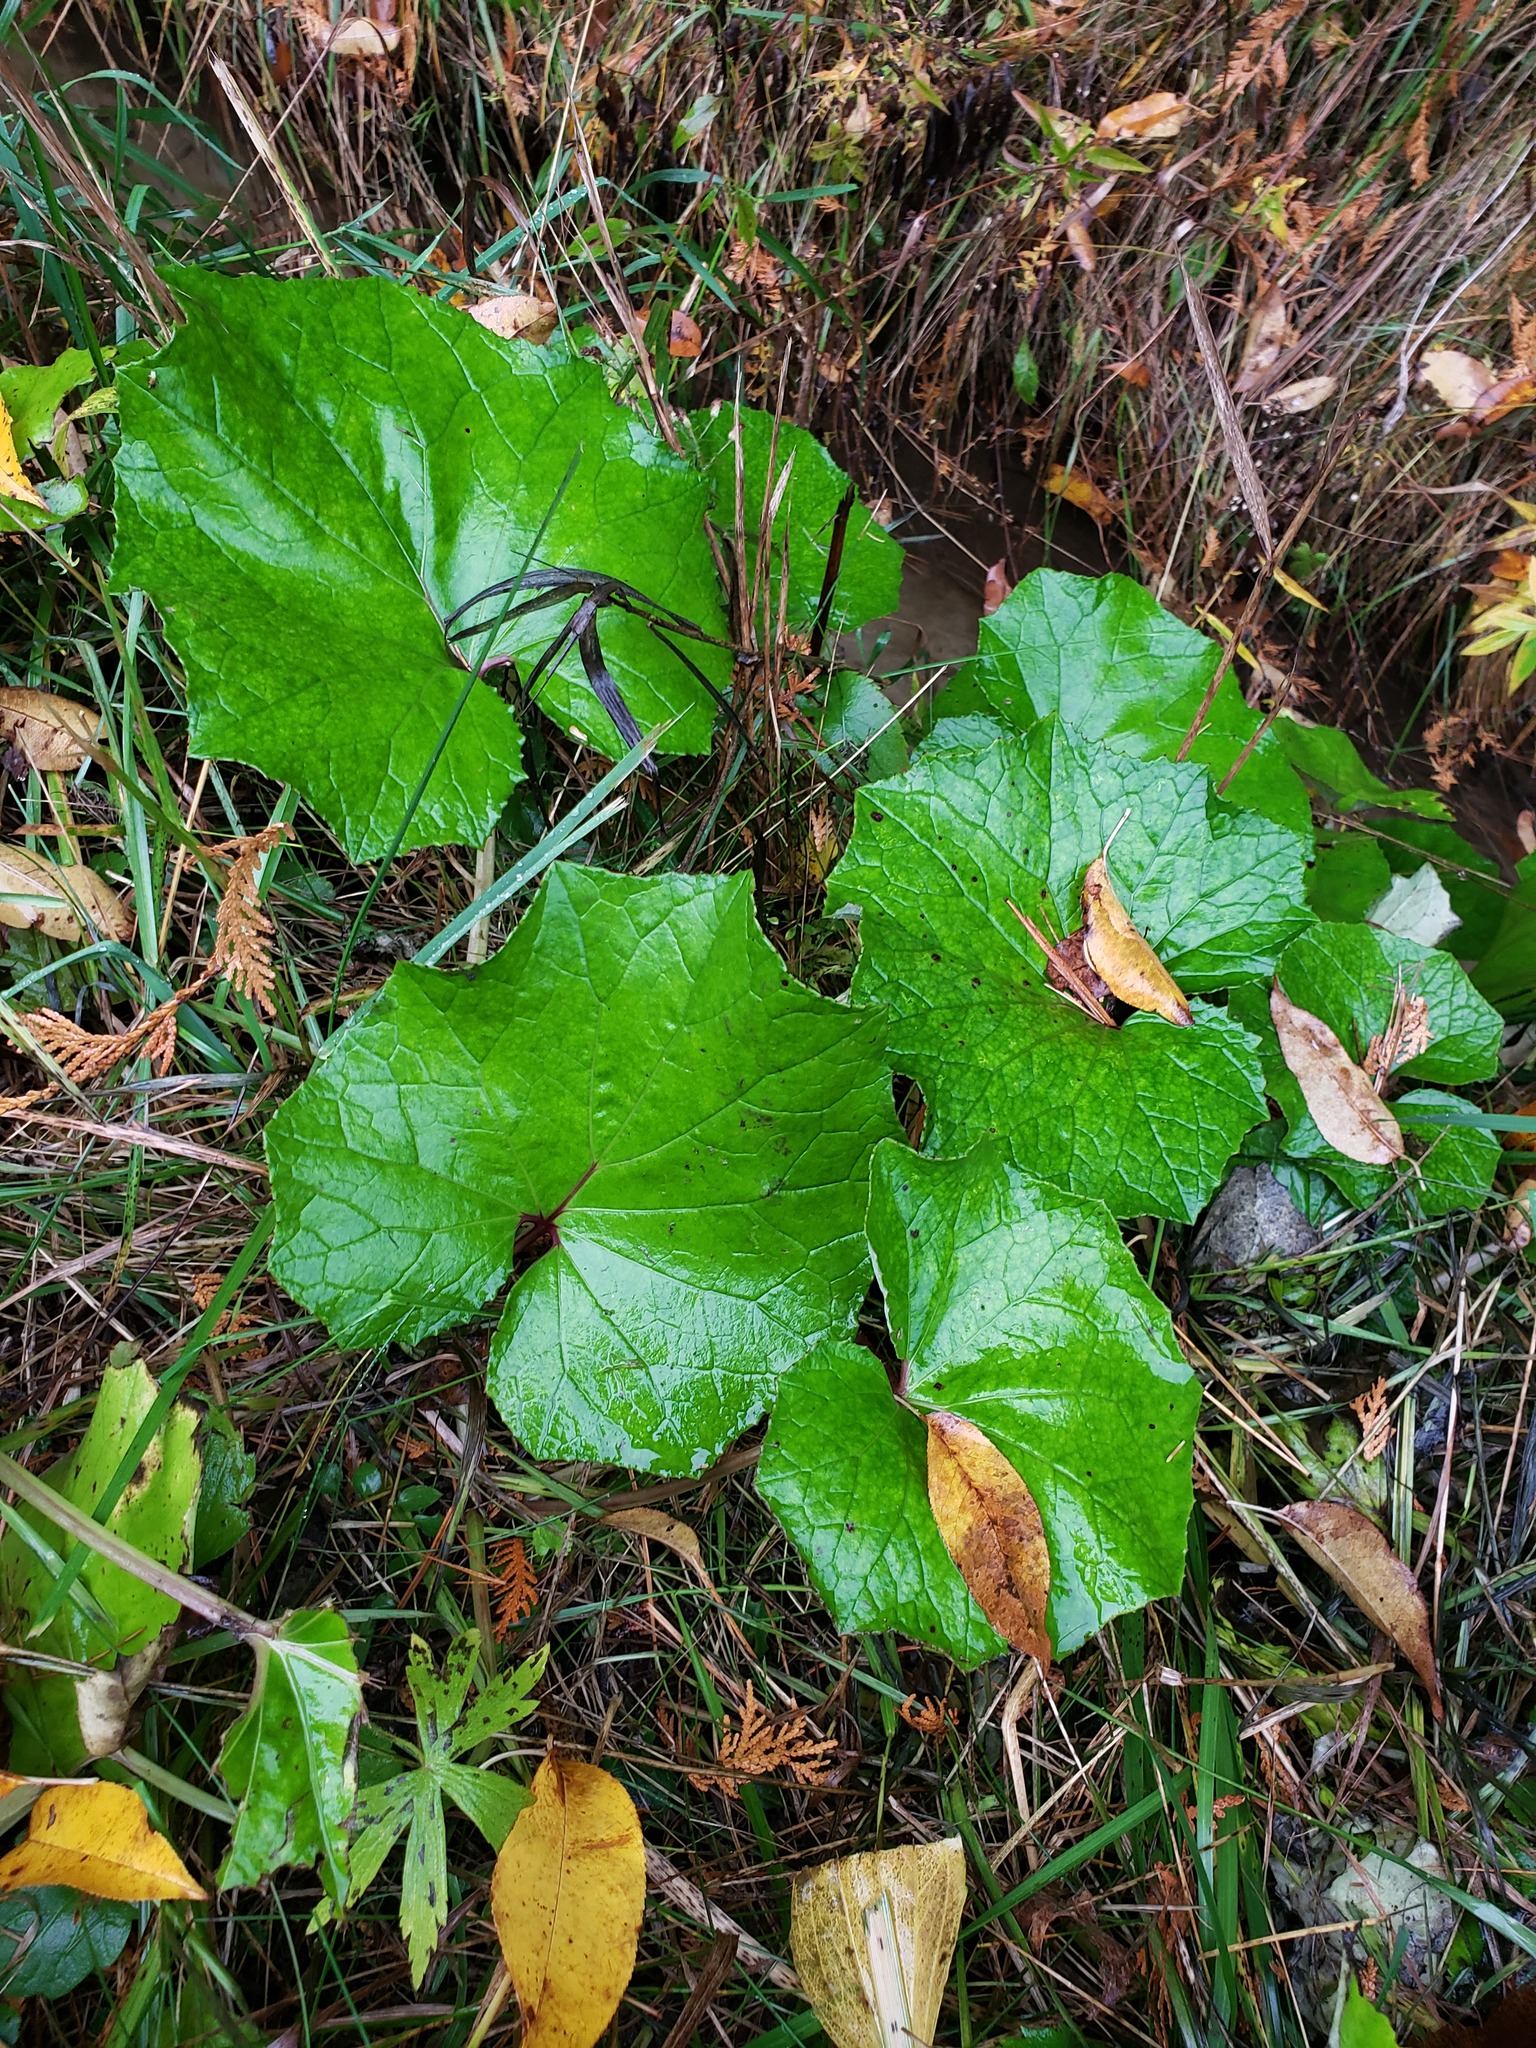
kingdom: Plantae
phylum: Tracheophyta
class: Magnoliopsida
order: Asterales
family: Asteraceae
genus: Tussilago
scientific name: Tussilago farfara
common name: Coltsfoot
